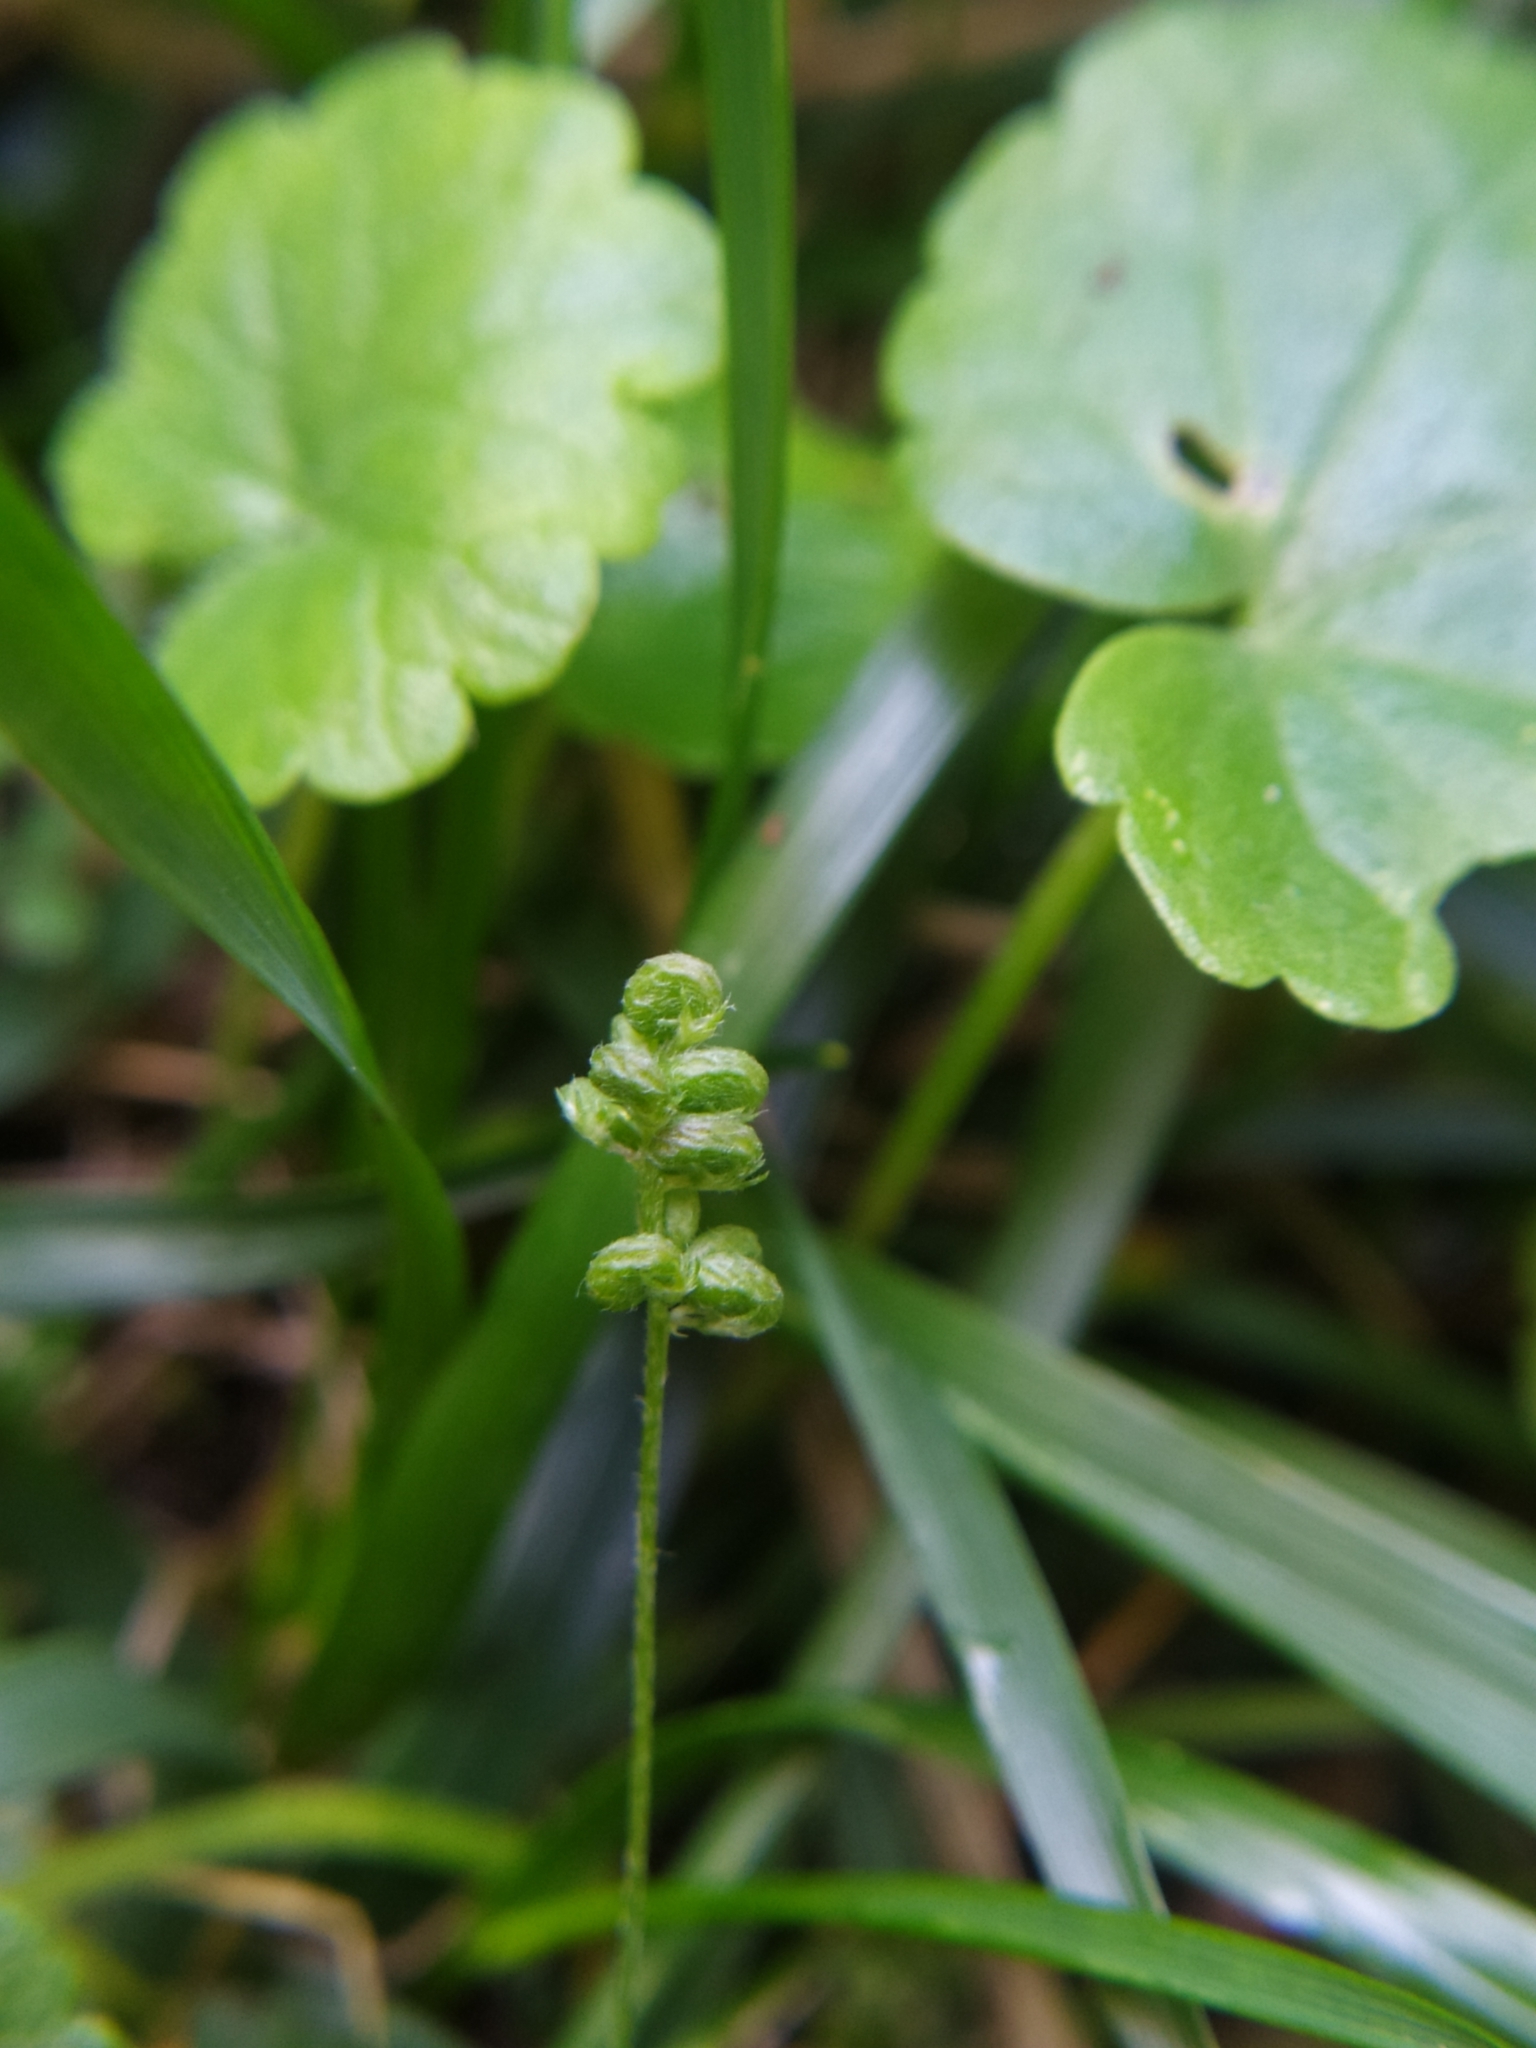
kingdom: Plantae
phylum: Tracheophyta
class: Magnoliopsida
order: Fabales
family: Fabaceae
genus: Medicago
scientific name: Medicago lupulina
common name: Black medick
